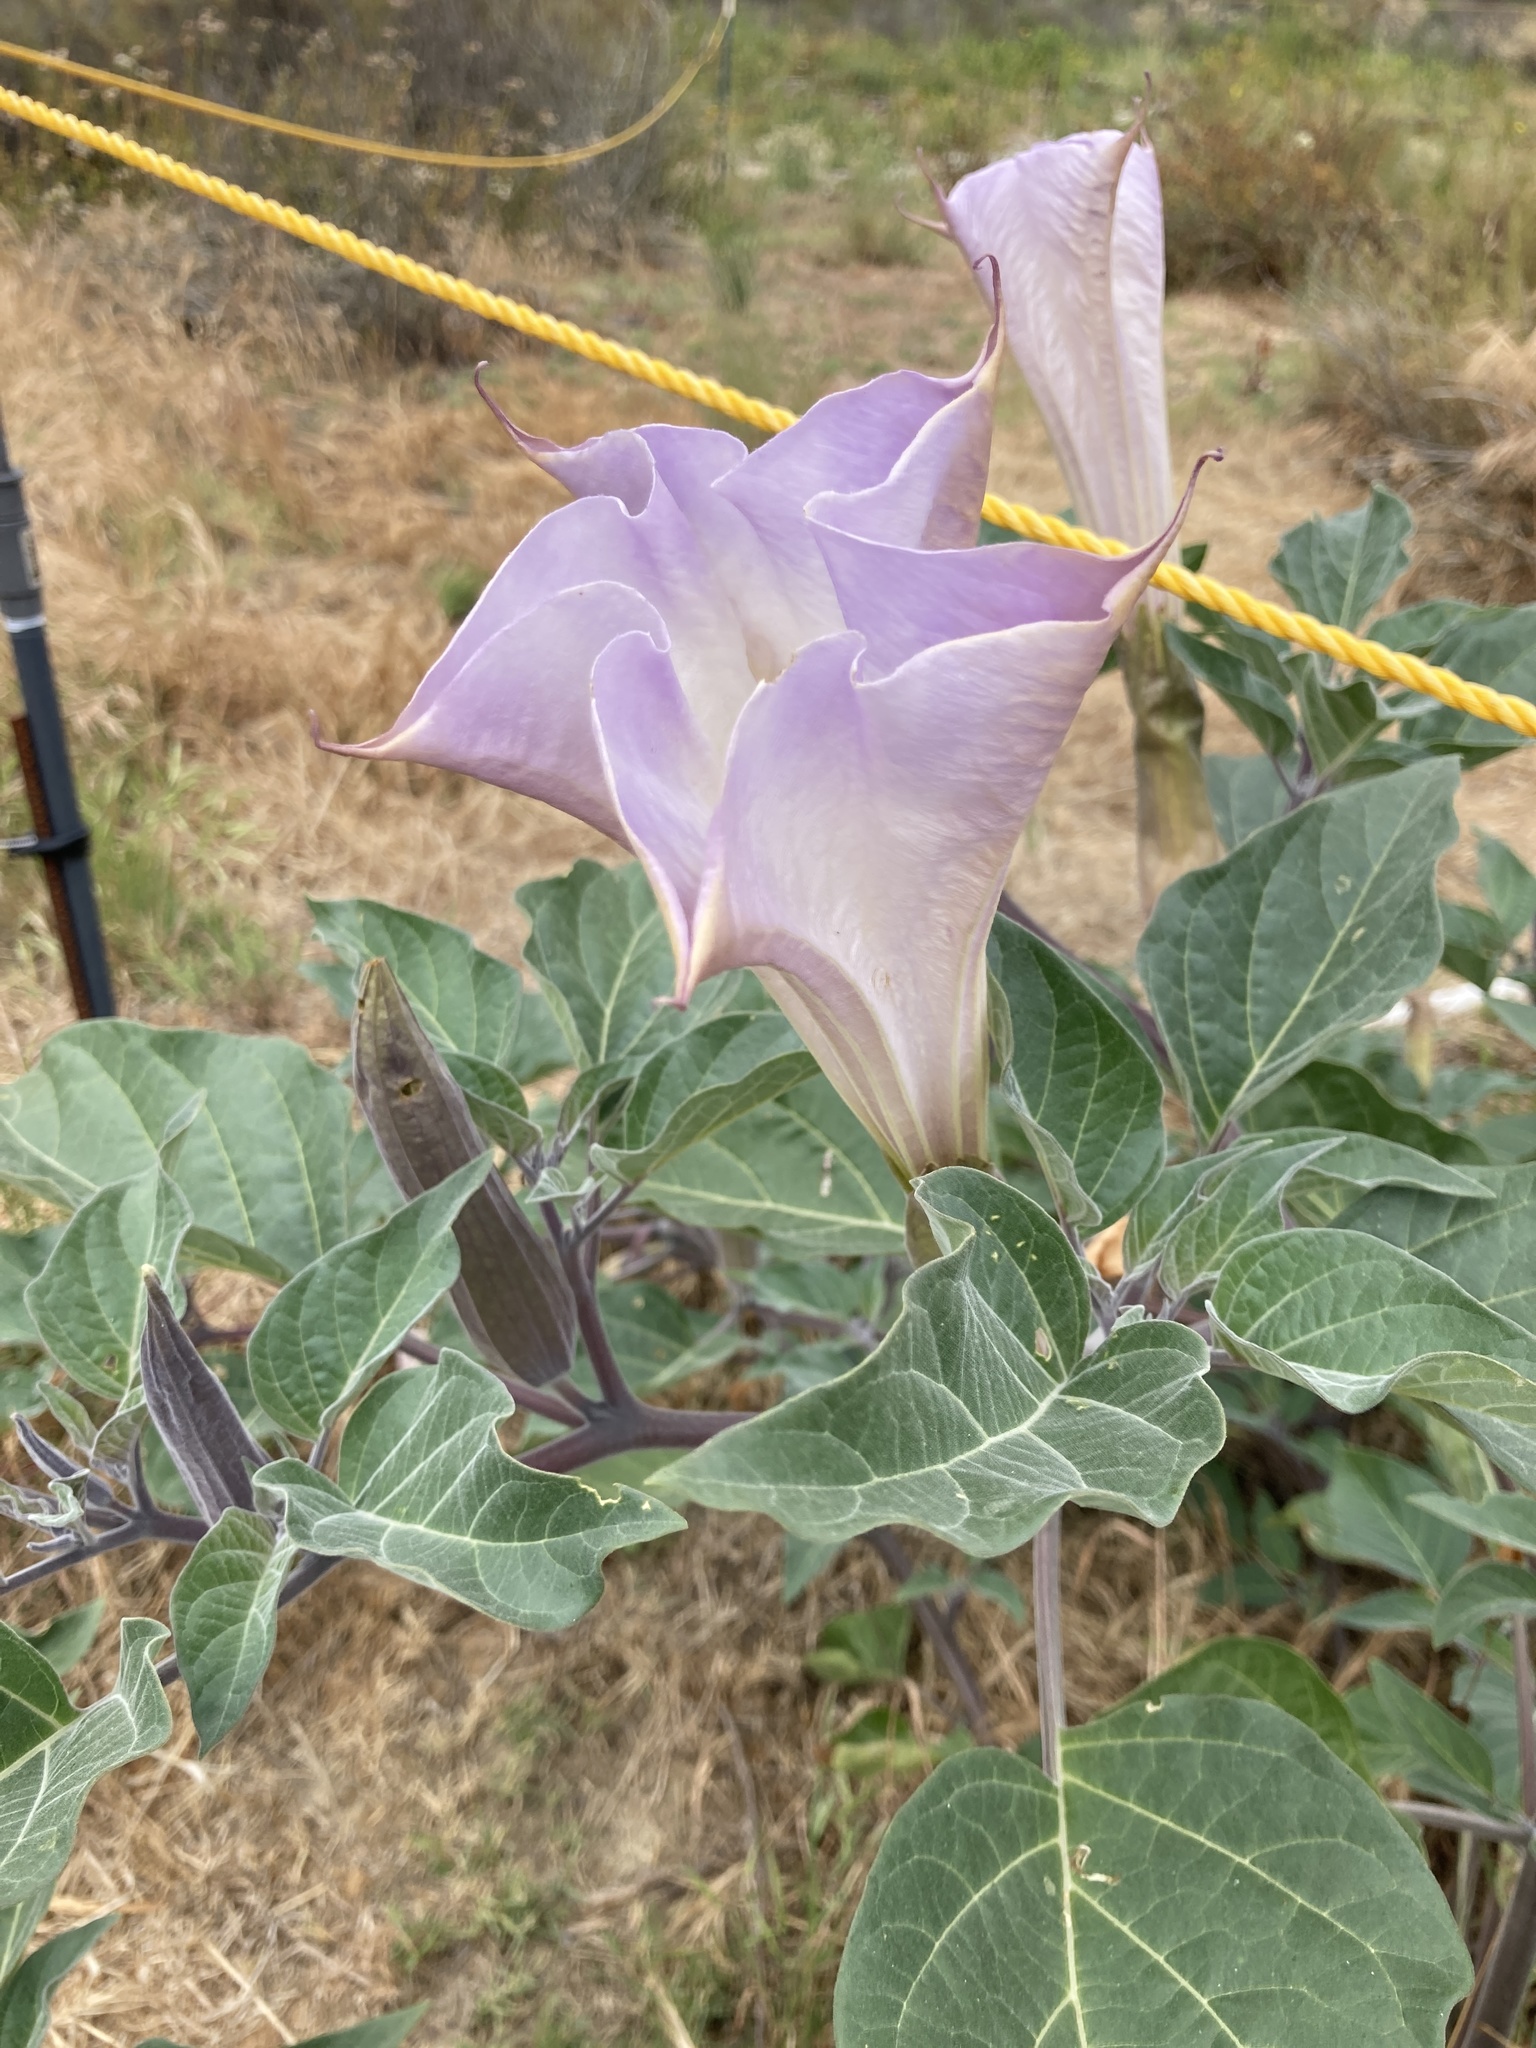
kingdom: Plantae
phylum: Tracheophyta
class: Magnoliopsida
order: Solanales
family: Solanaceae
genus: Datura
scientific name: Datura wrightii
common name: Sacred thorn-apple
